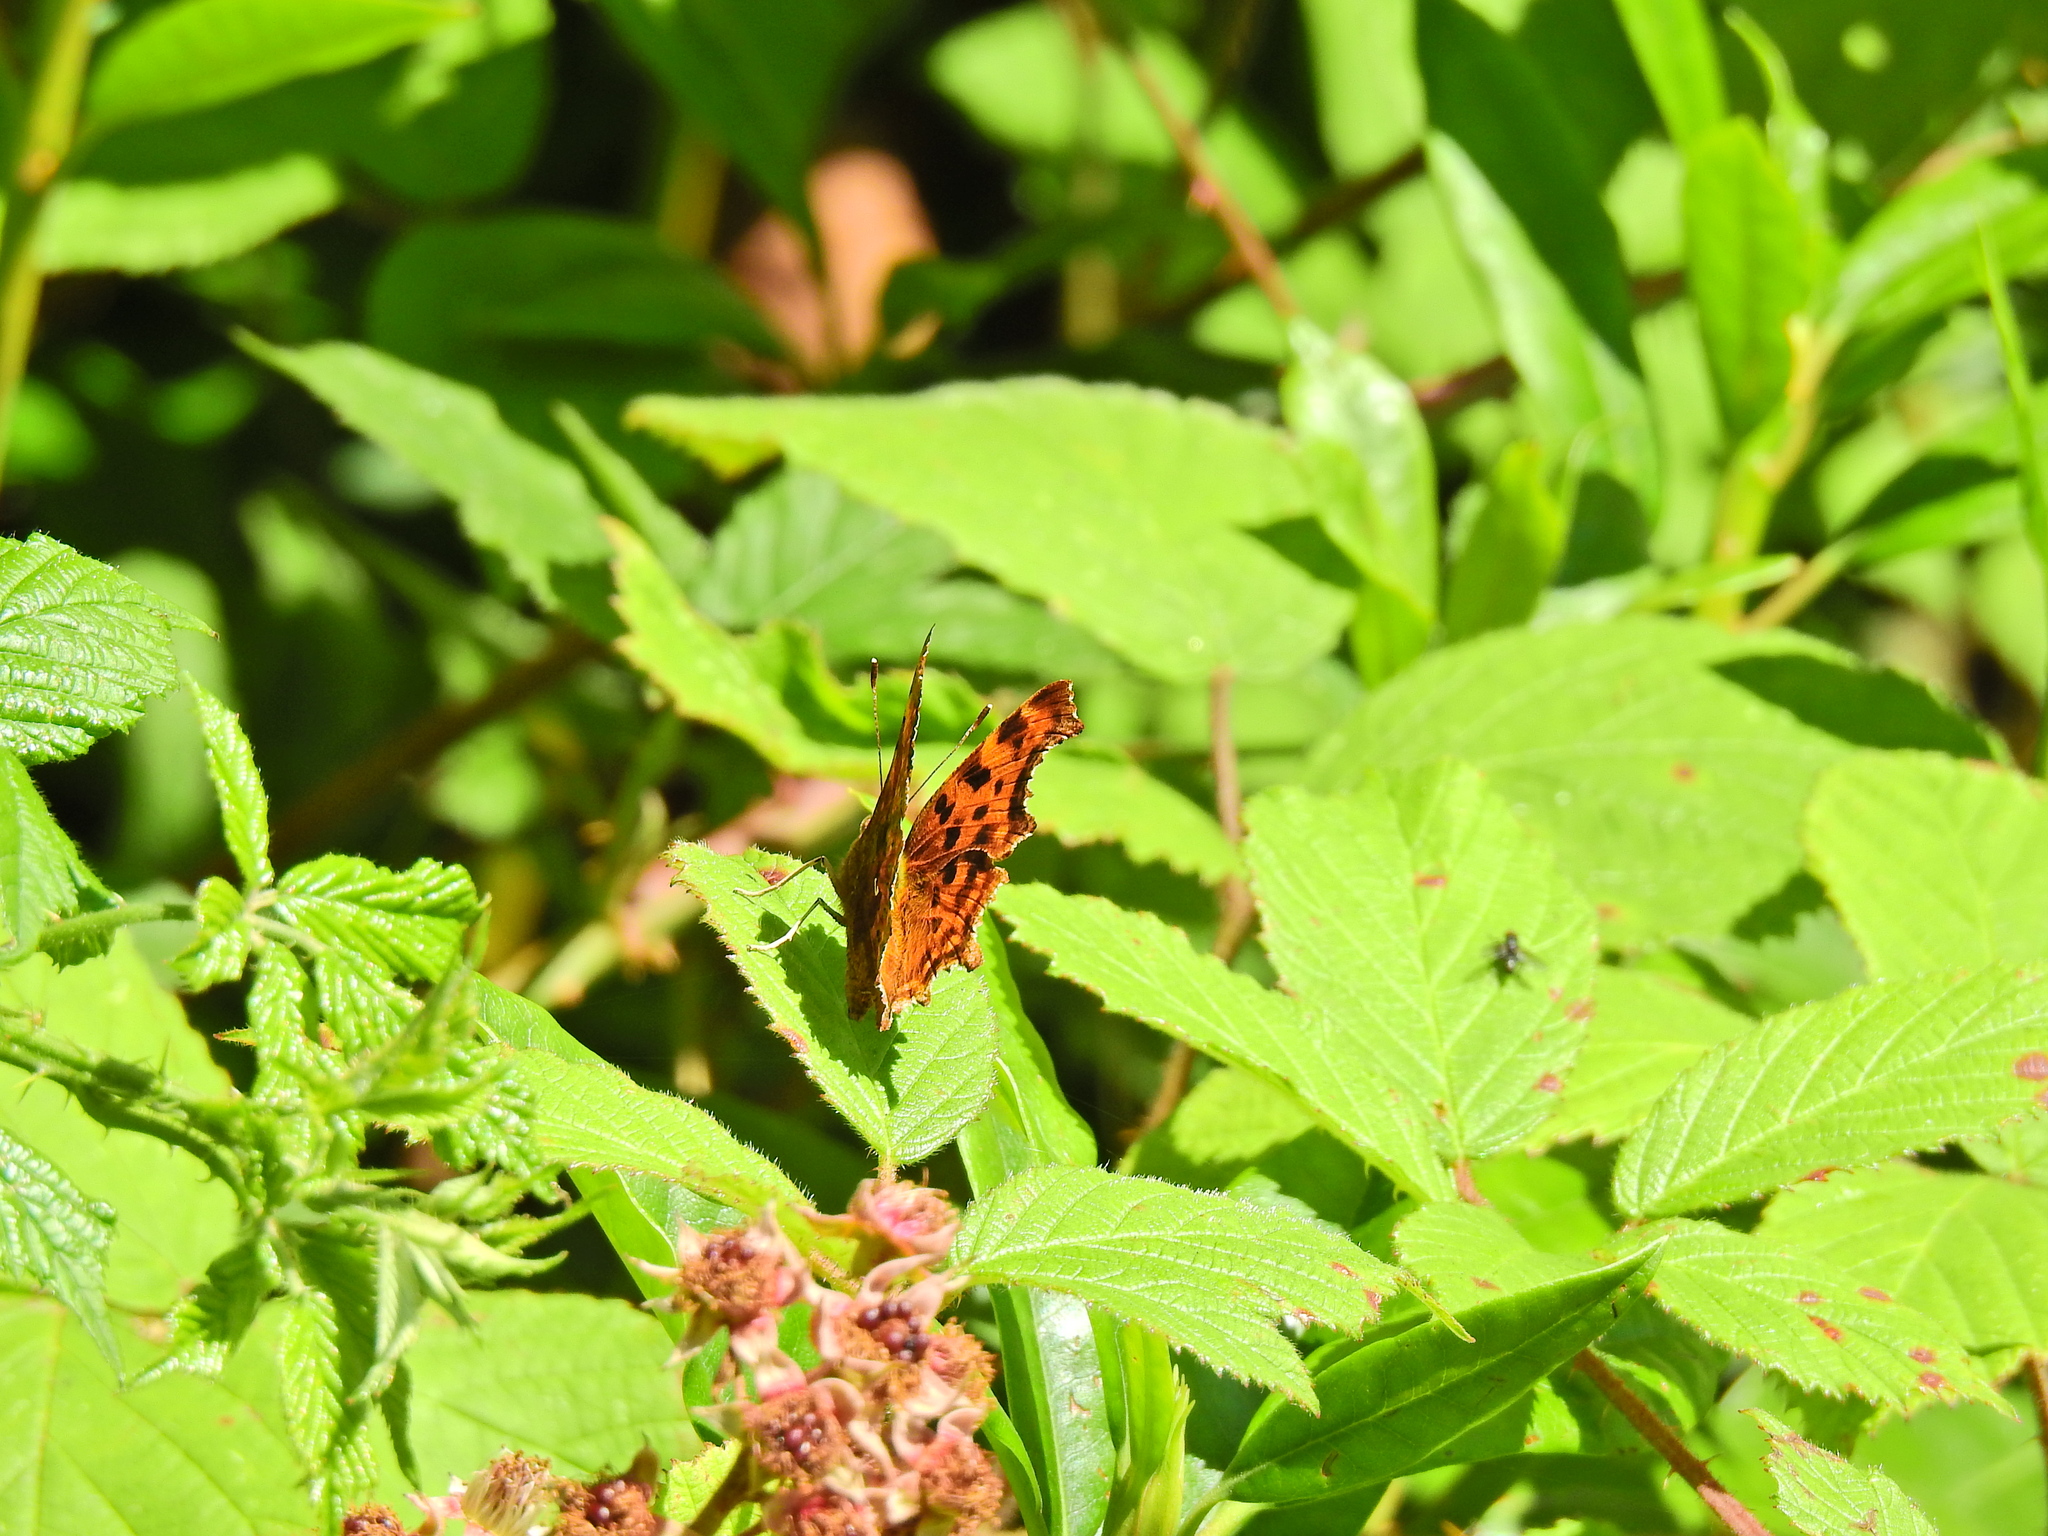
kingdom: Animalia
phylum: Arthropoda
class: Insecta
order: Lepidoptera
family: Nymphalidae
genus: Polygonia
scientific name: Polygonia c-album
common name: Comma
